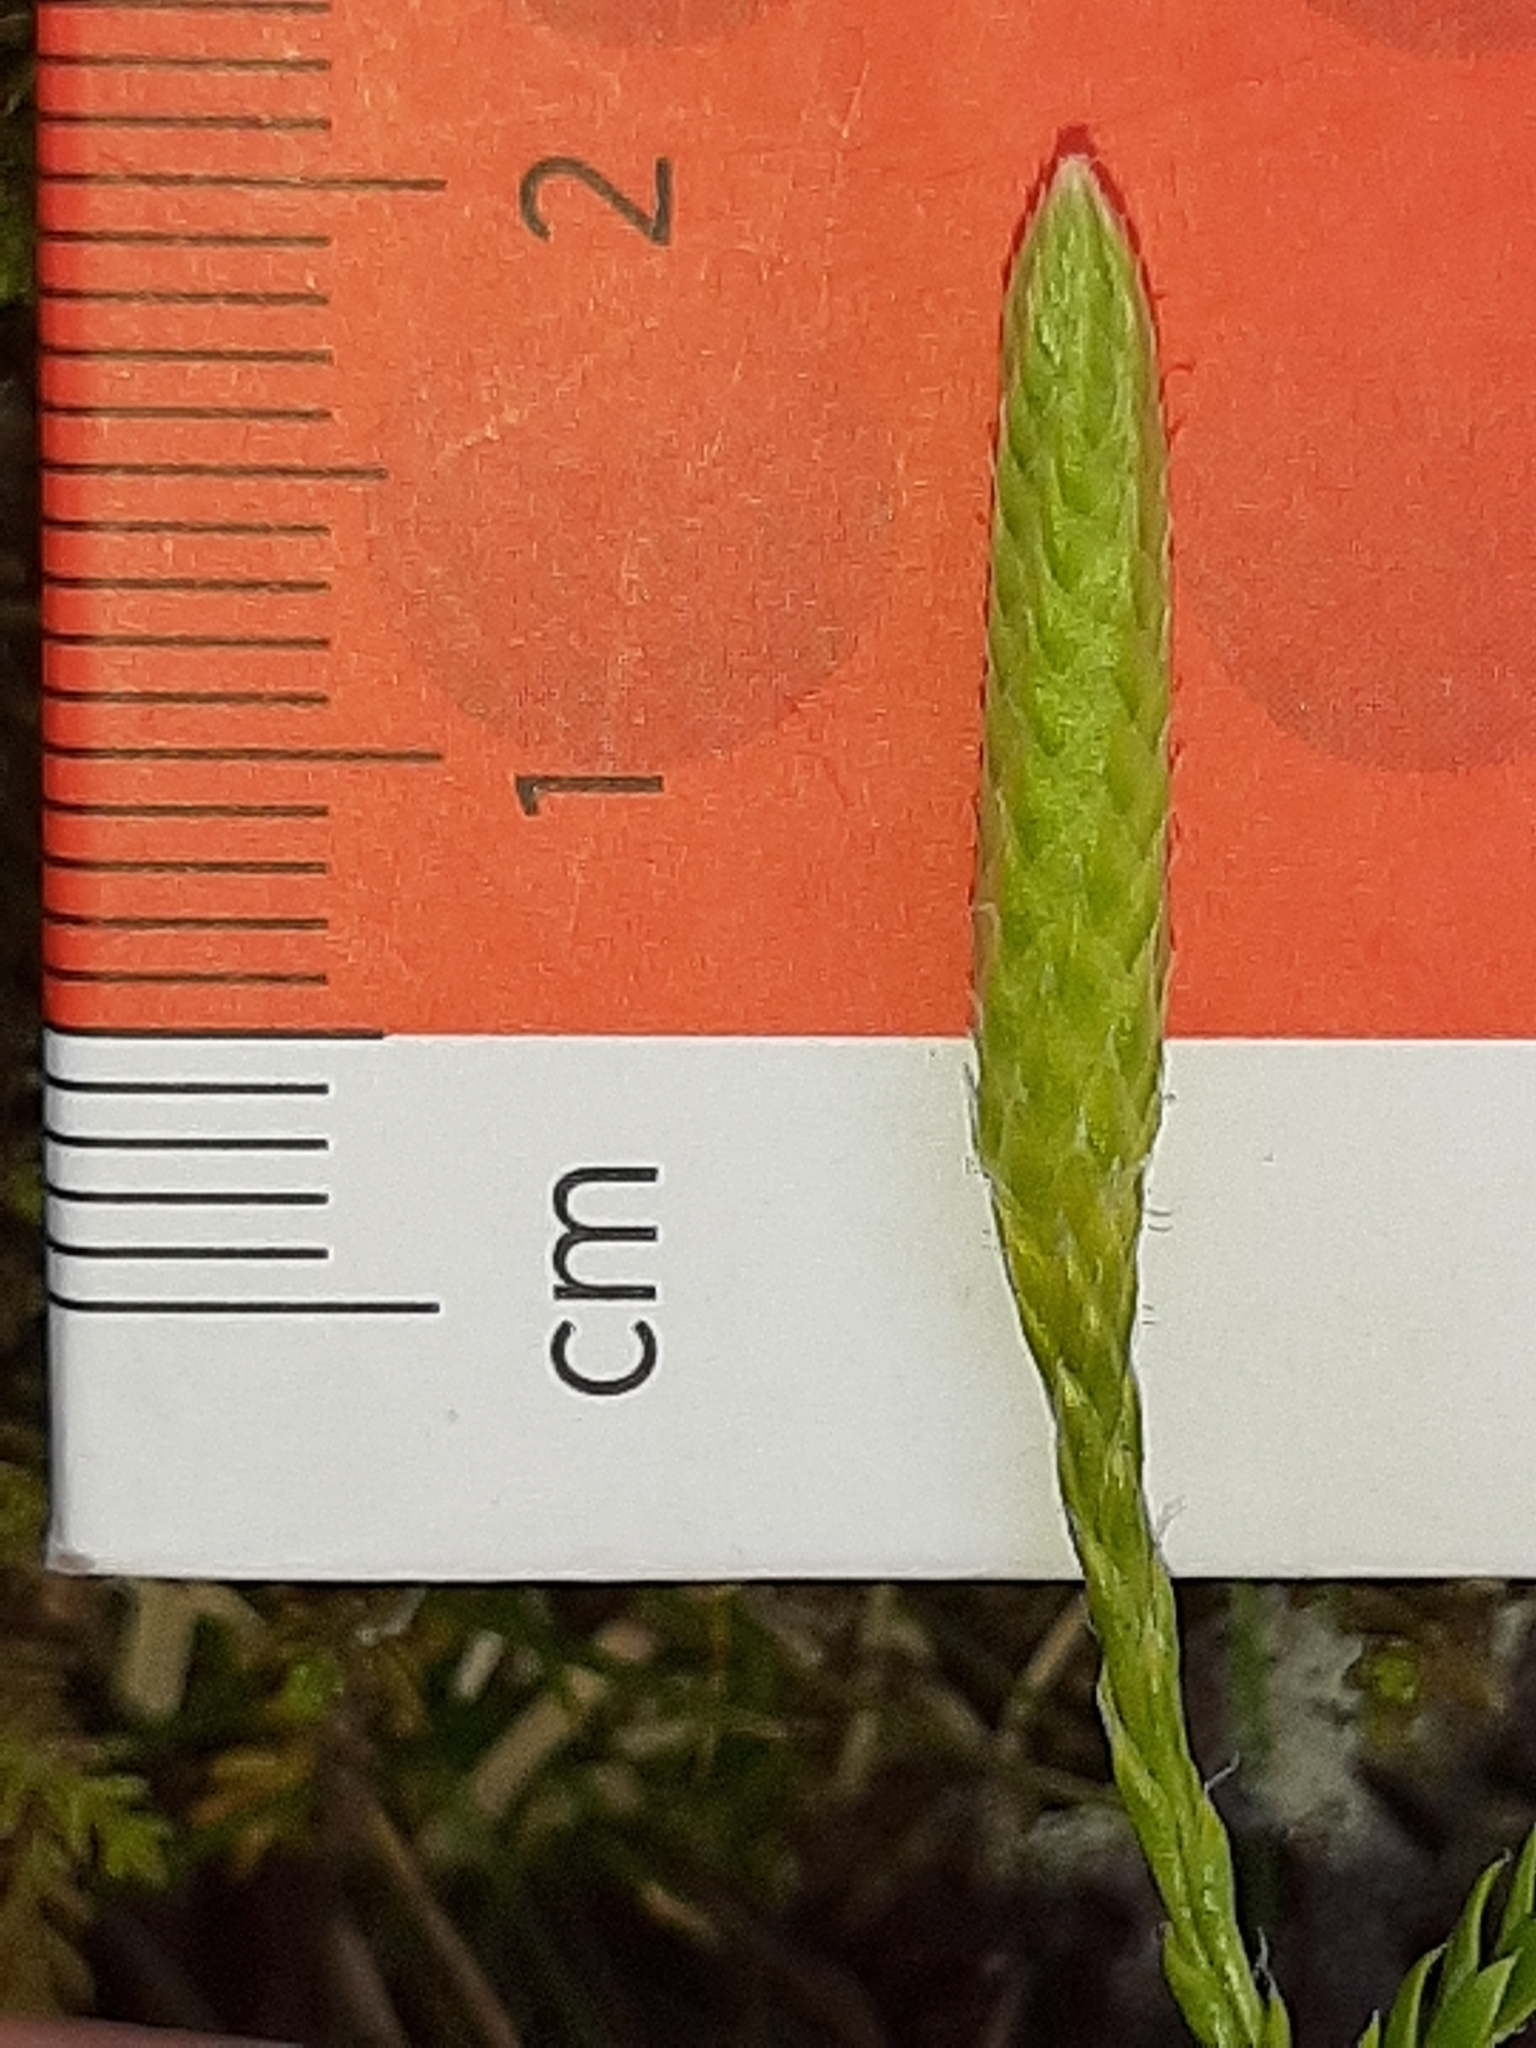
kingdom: Plantae
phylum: Tracheophyta
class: Lycopodiopsida
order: Lycopodiales
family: Lycopodiaceae
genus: Diphasium
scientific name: Diphasium scariosum
